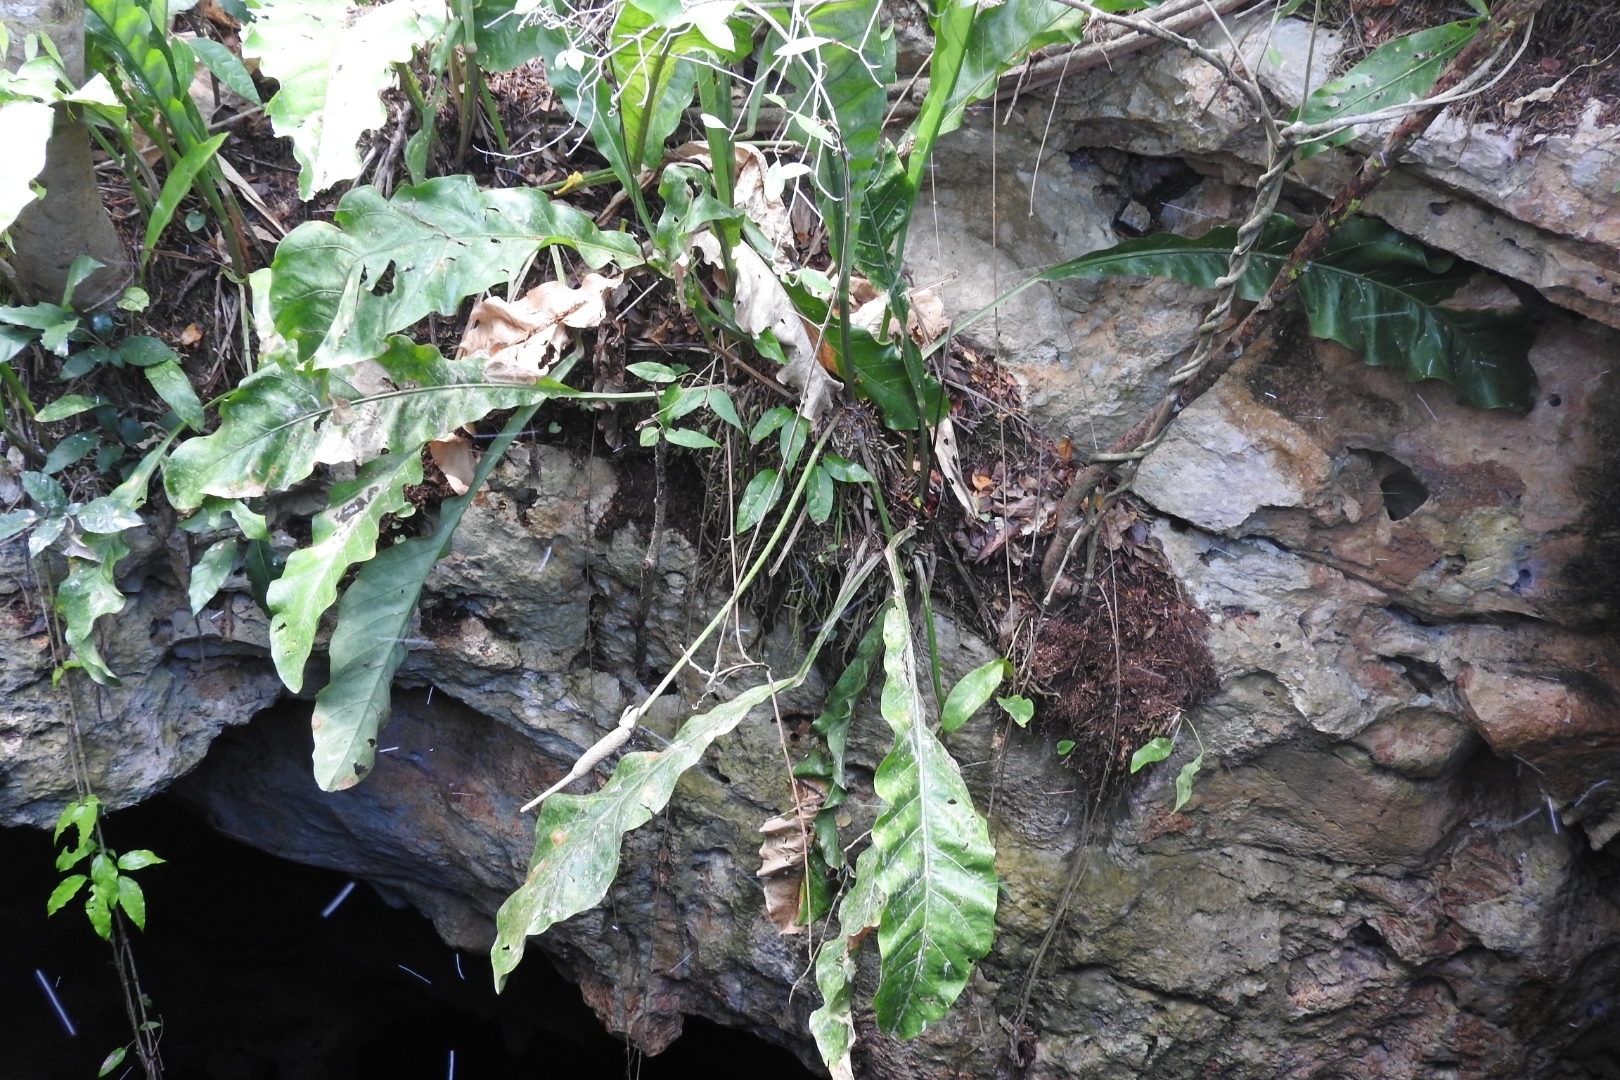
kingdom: Plantae
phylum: Tracheophyta
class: Liliopsida
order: Alismatales
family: Araceae
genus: Anthurium
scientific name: Anthurium schlechtendalii
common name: Laceleaf
